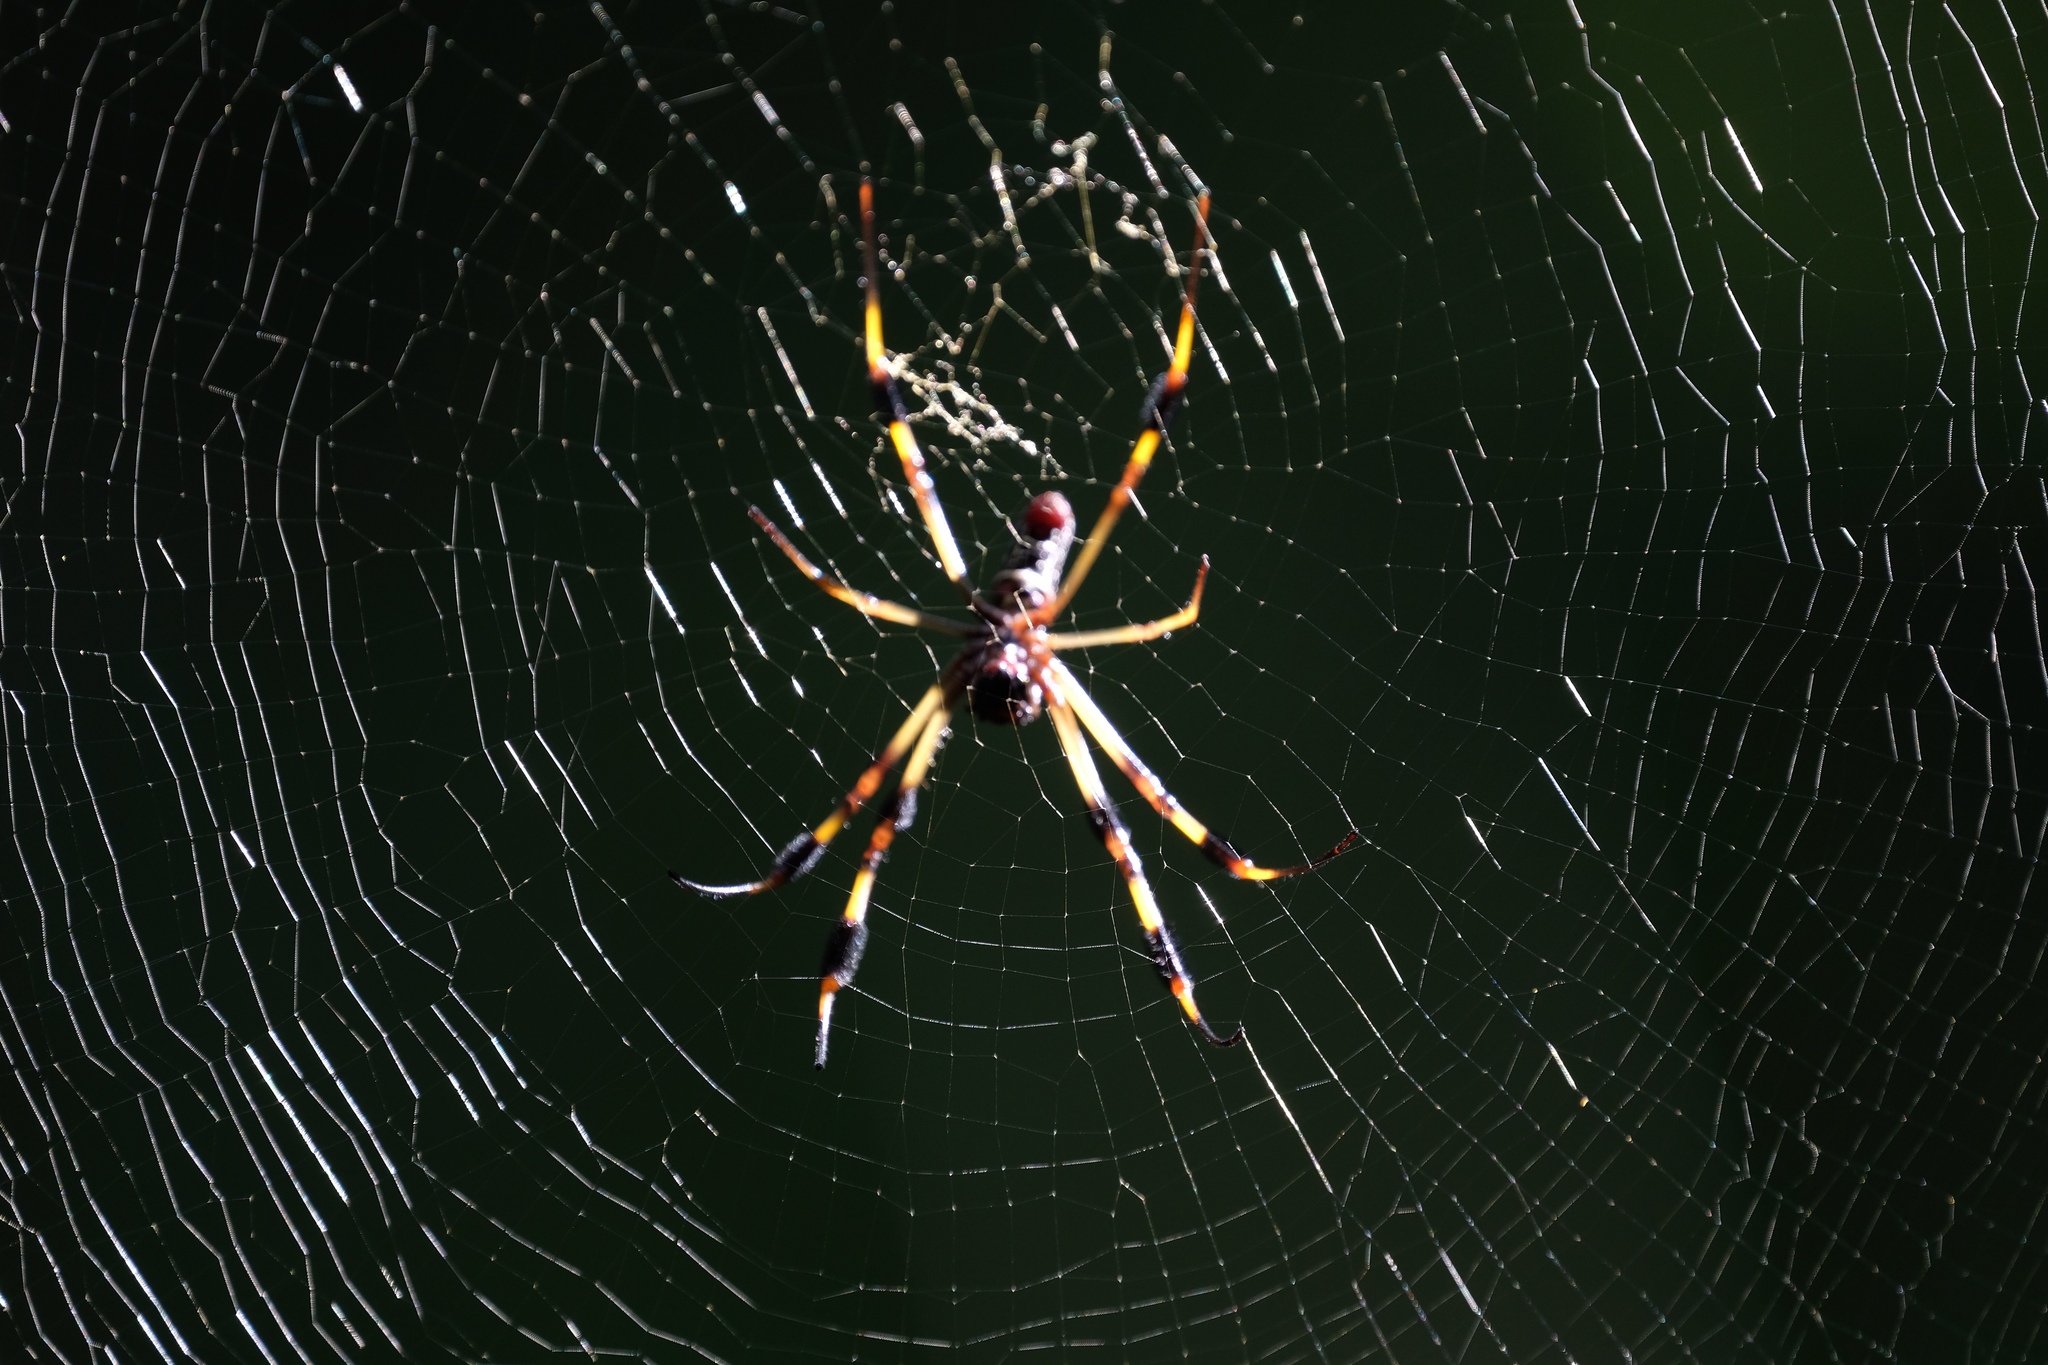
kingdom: Animalia
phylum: Arthropoda
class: Arachnida
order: Araneae
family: Araneidae
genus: Trichonephila
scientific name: Trichonephila clavipes
